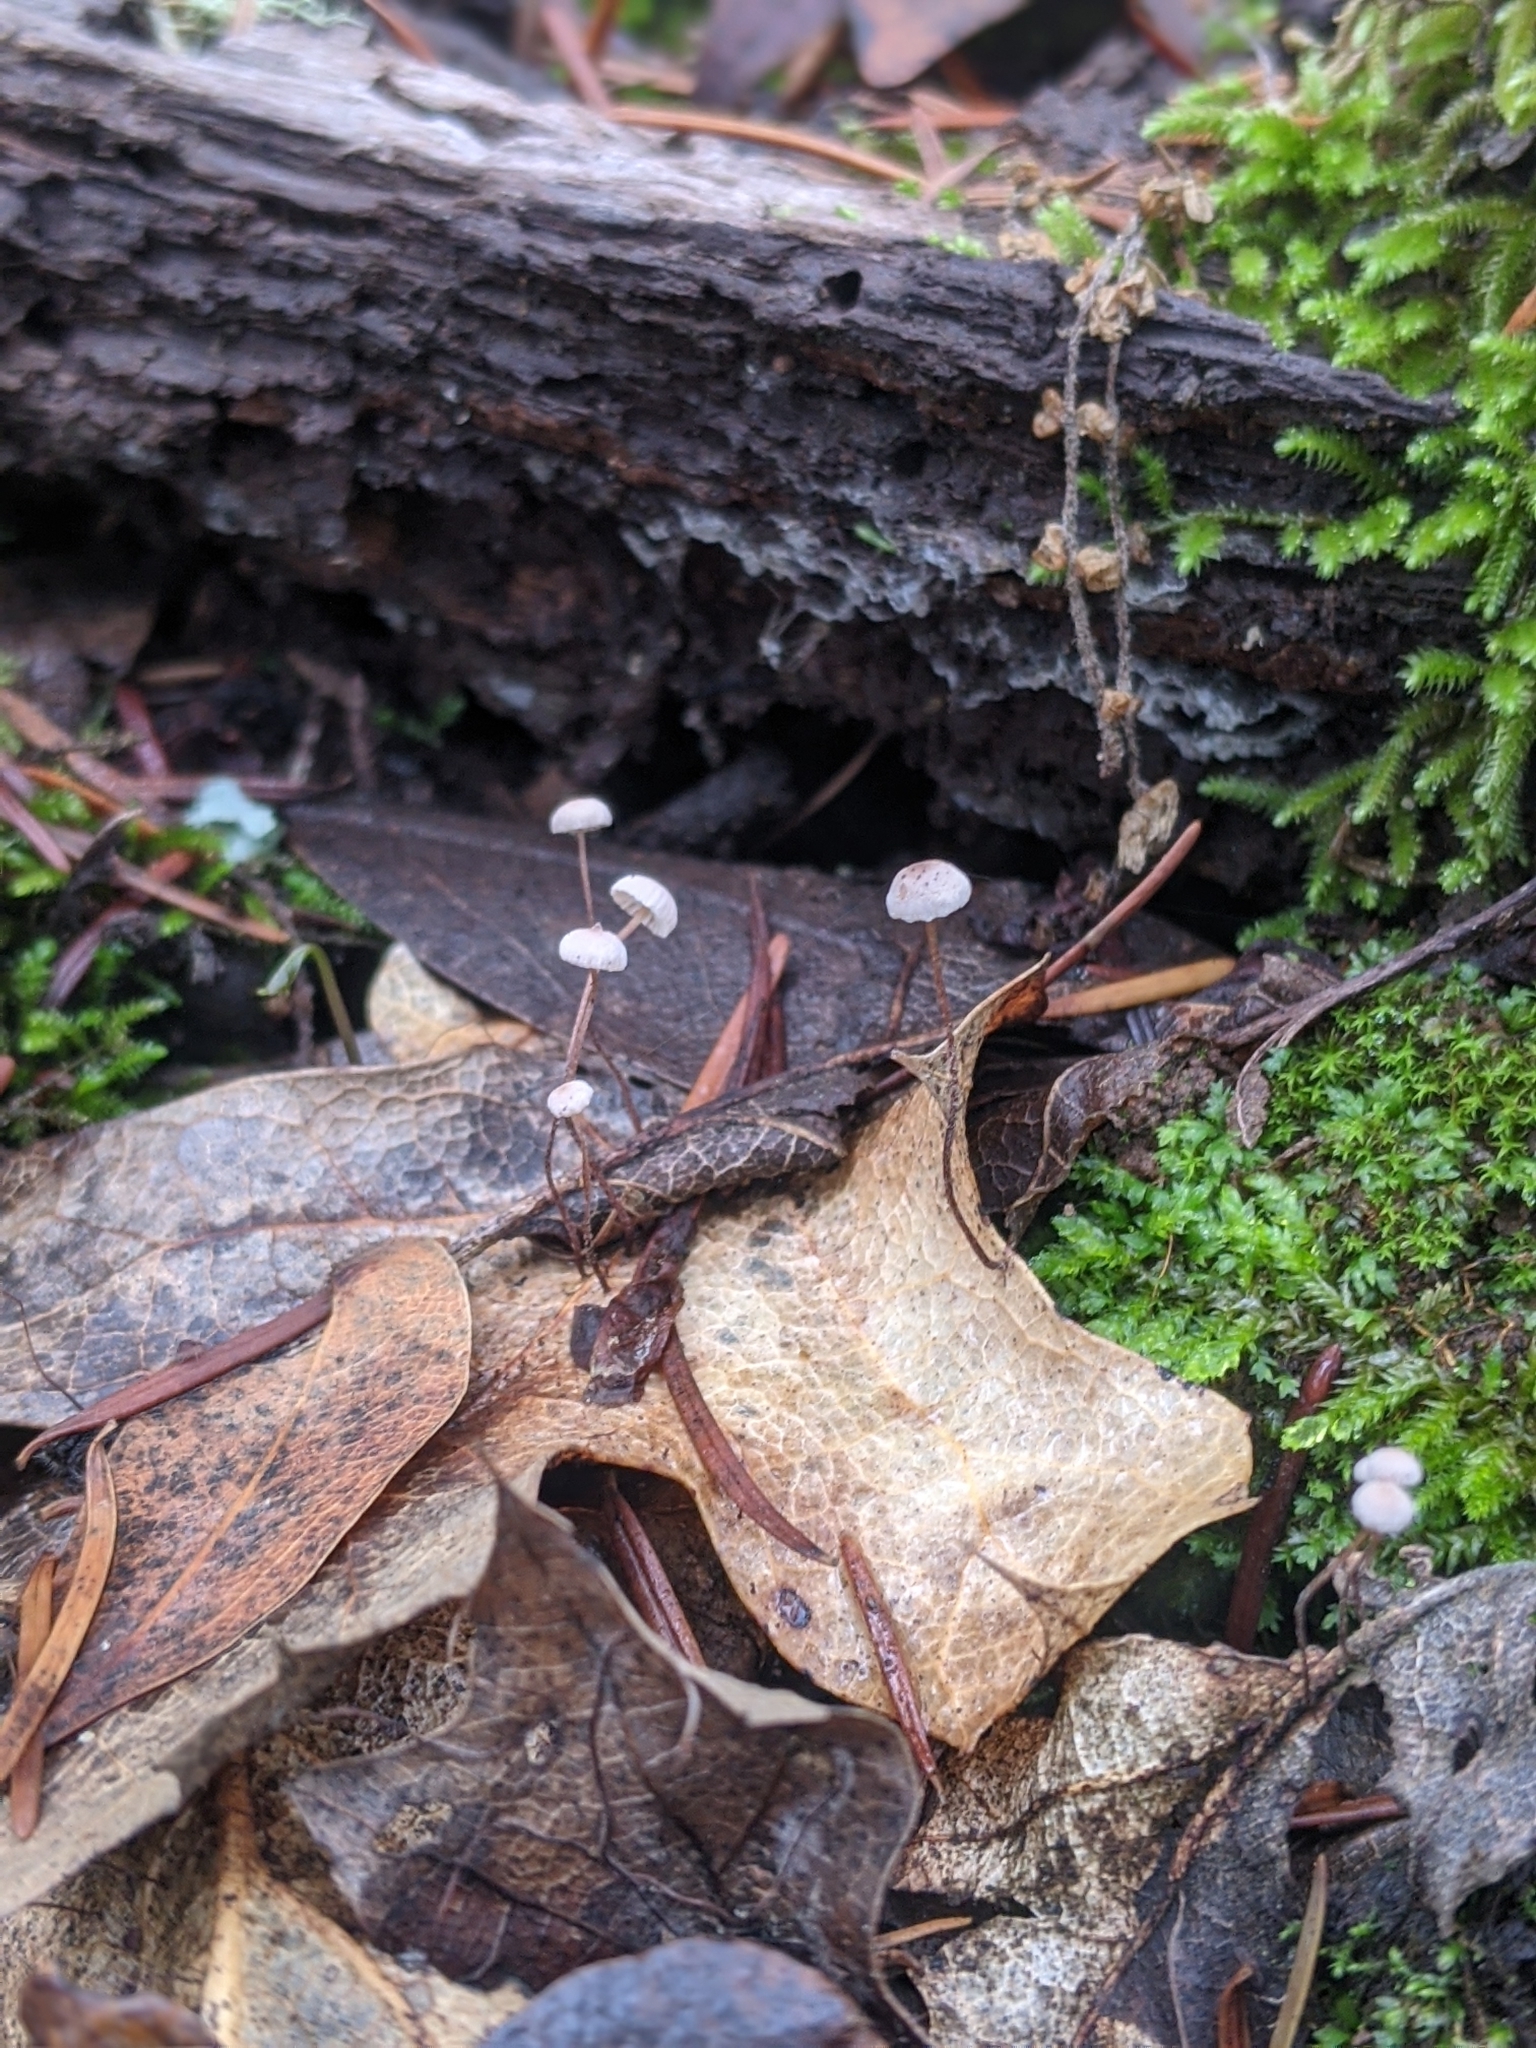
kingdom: Fungi
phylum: Basidiomycota
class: Agaricomycetes
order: Agaricales
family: Omphalotaceae
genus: Collybiopsis
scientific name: Collybiopsis quercophila
